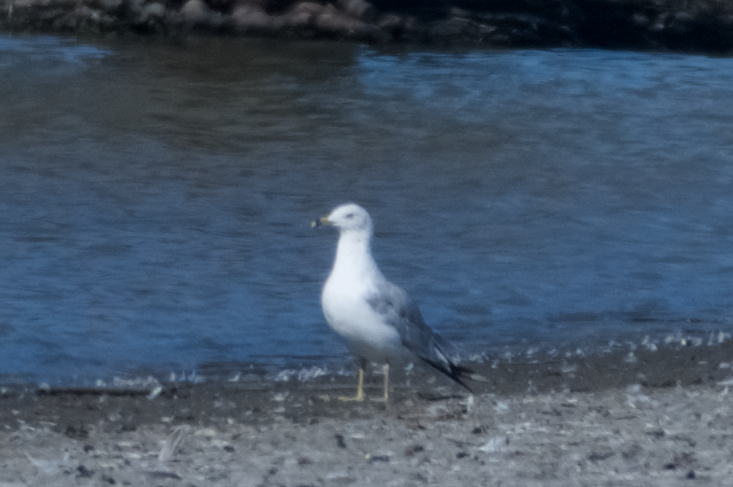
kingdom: Animalia
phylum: Chordata
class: Aves
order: Charadriiformes
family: Laridae
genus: Larus
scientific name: Larus delawarensis
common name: Ring-billed gull
